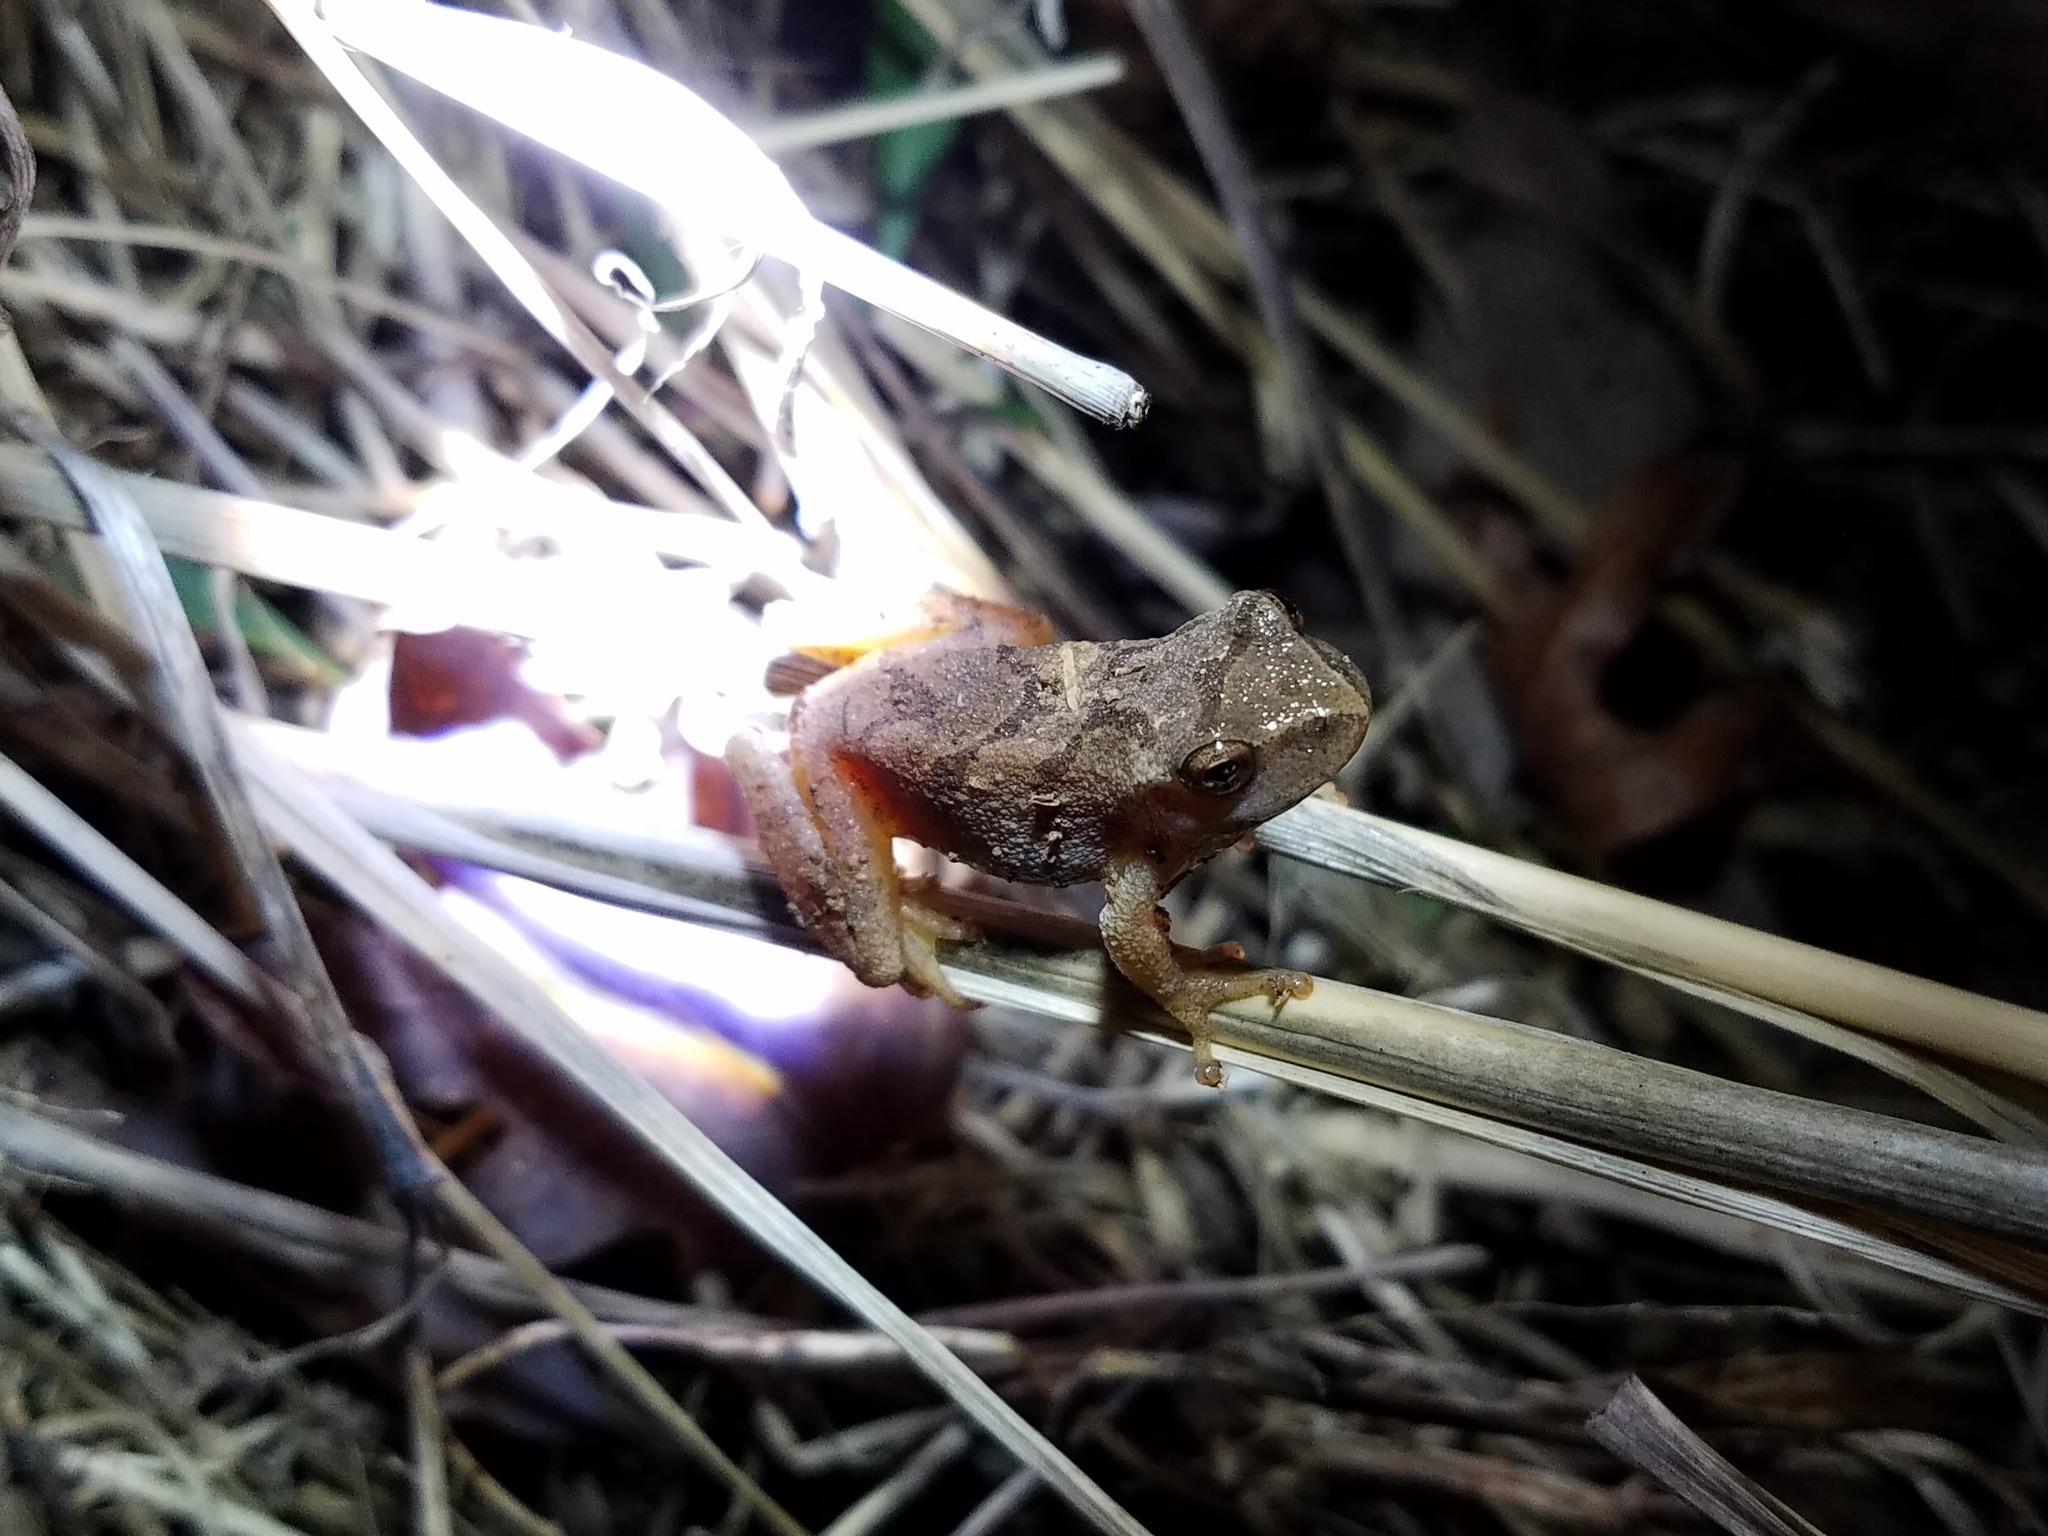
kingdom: Animalia
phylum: Chordata
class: Amphibia
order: Anura
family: Hylidae
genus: Pseudacris
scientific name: Pseudacris crucifer
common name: Spring peeper
